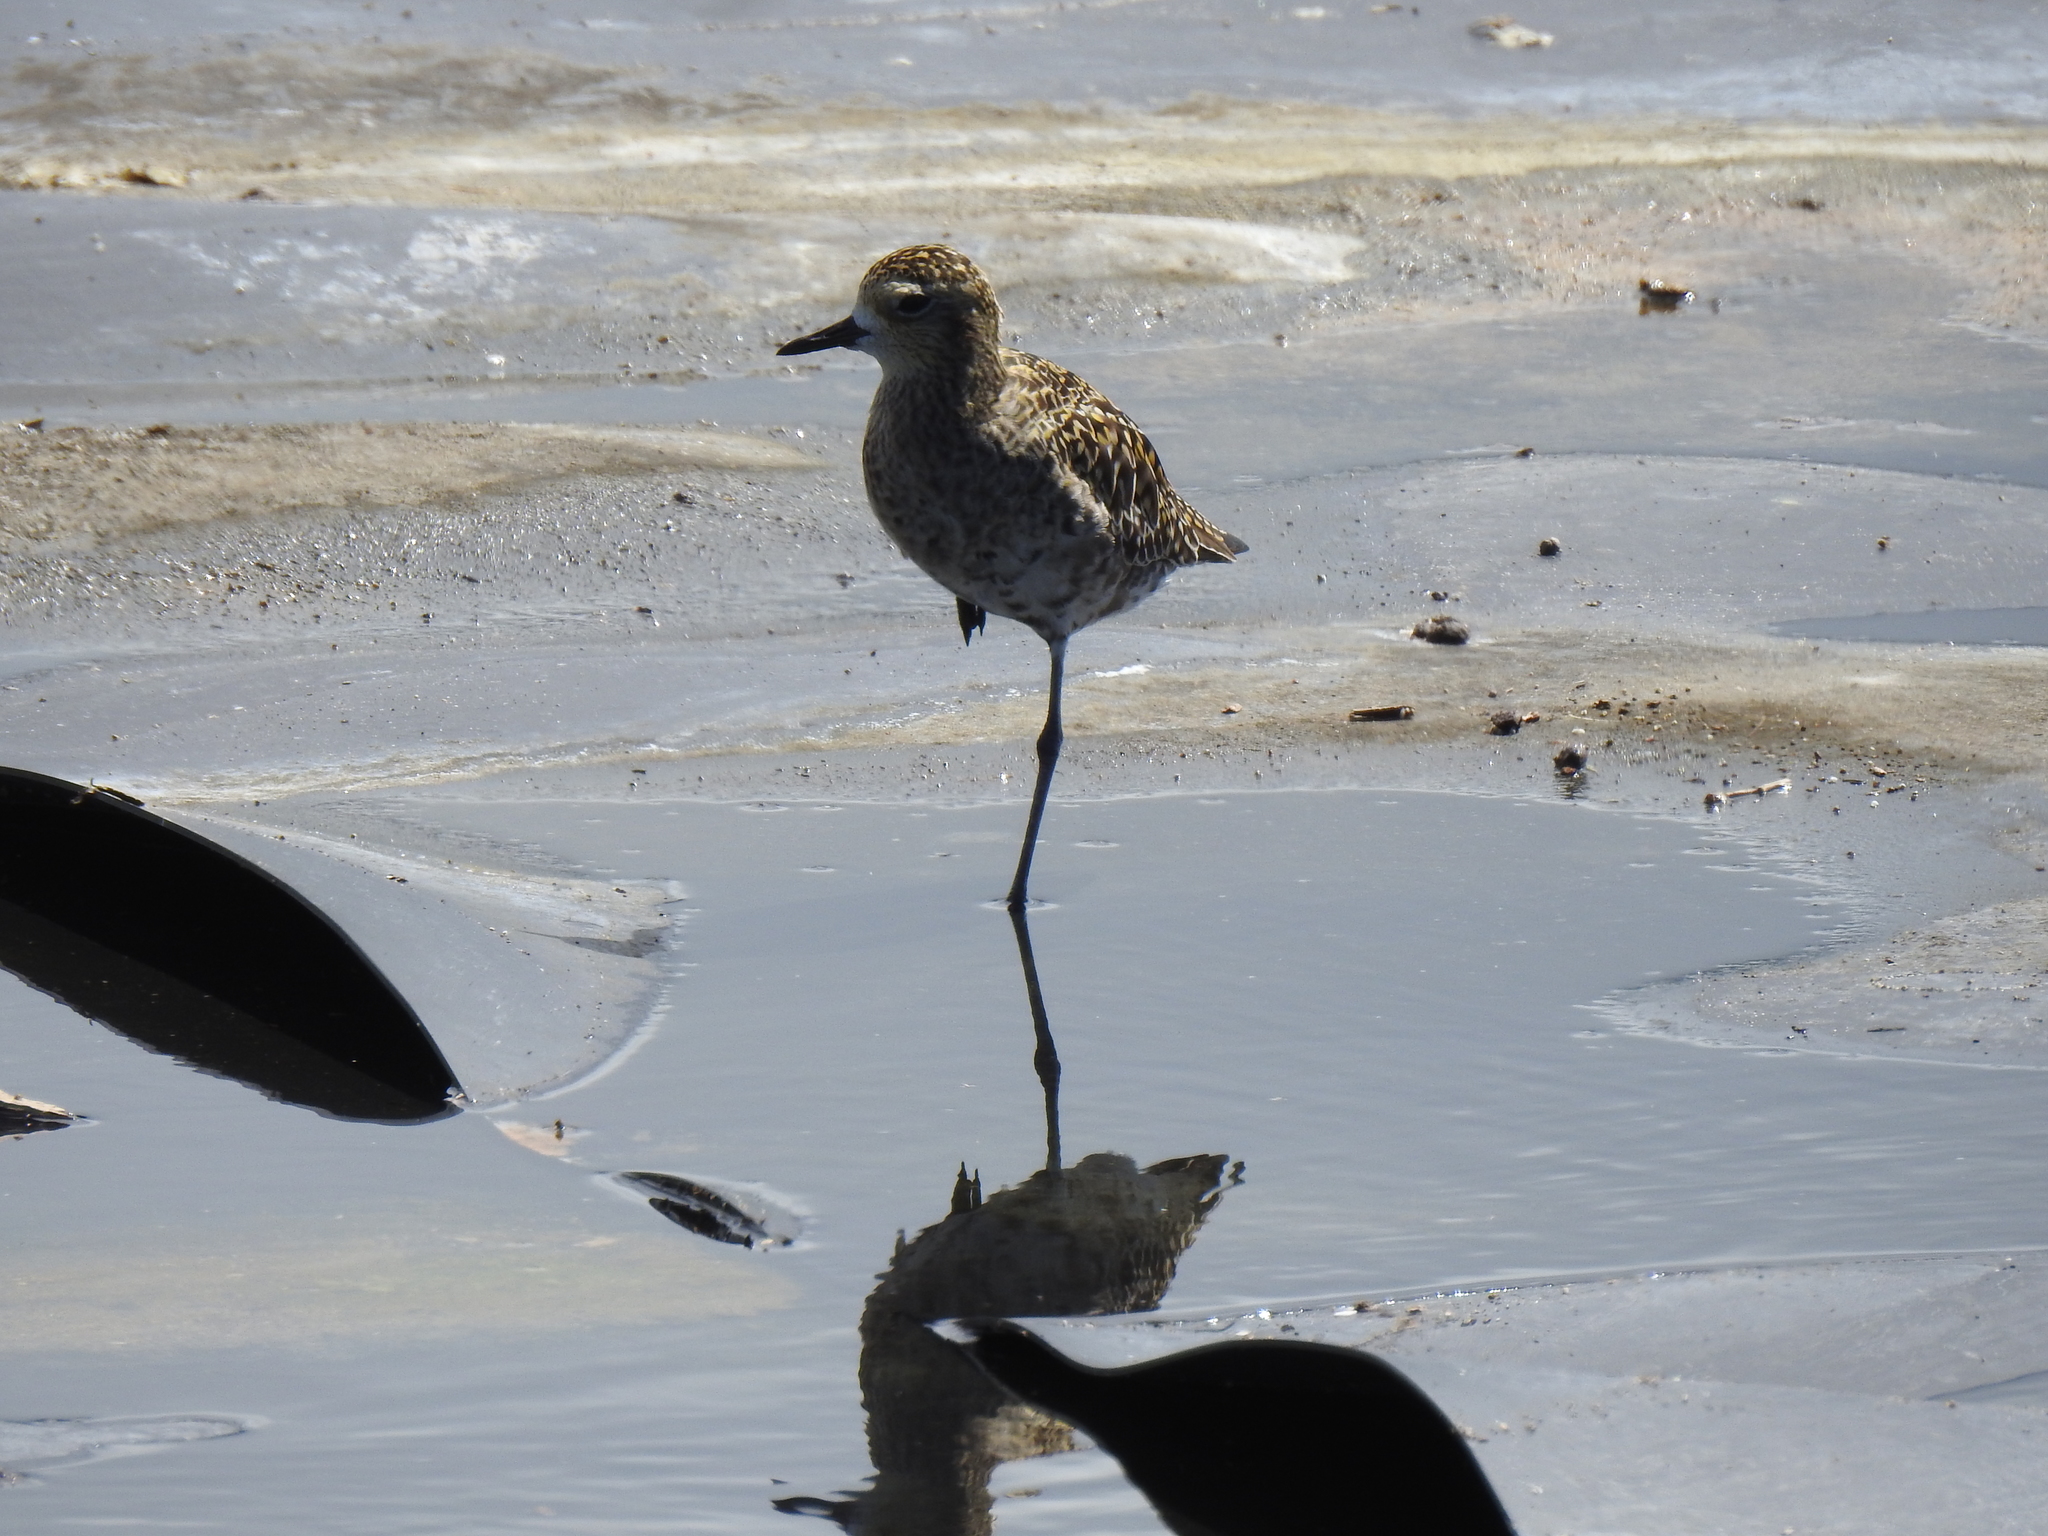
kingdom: Animalia
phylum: Chordata
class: Aves
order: Charadriiformes
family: Charadriidae
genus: Pluvialis
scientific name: Pluvialis fulva
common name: Pacific golden plover
